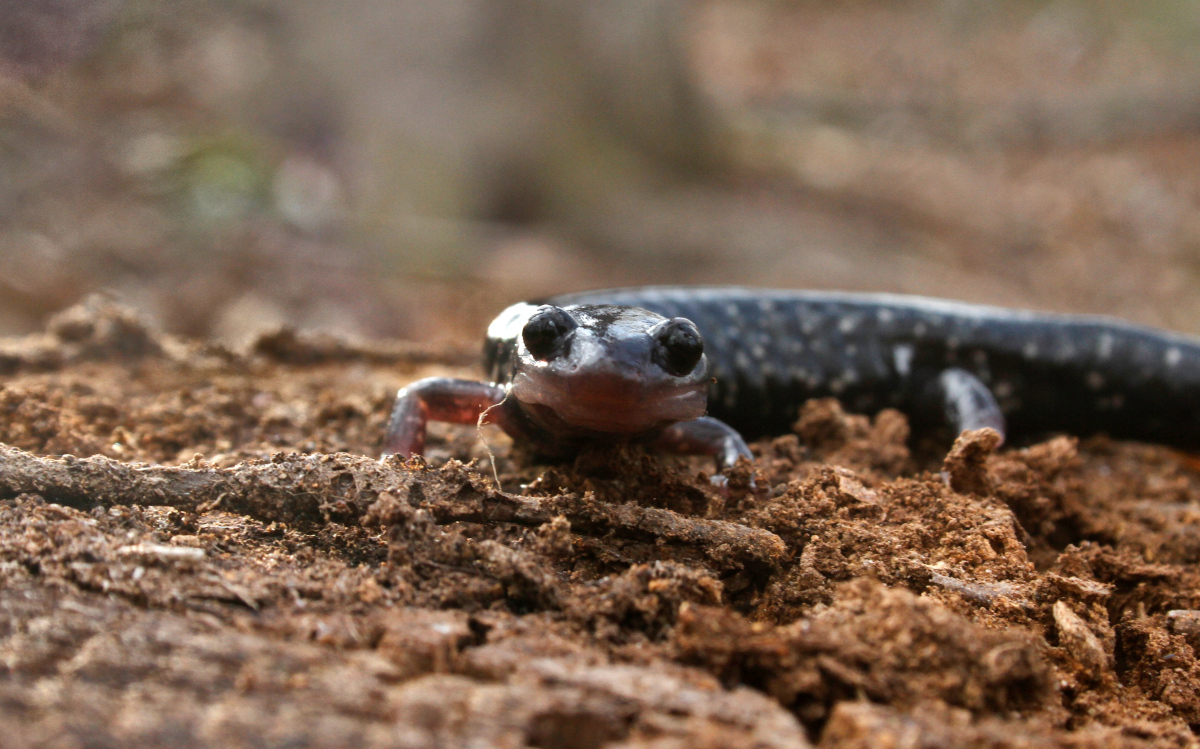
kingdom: Animalia
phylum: Chordata
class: Amphibia
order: Caudata
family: Plethodontidae
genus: Plethodon
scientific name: Plethodon cylindraceus
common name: White-spotted slimy salamander
